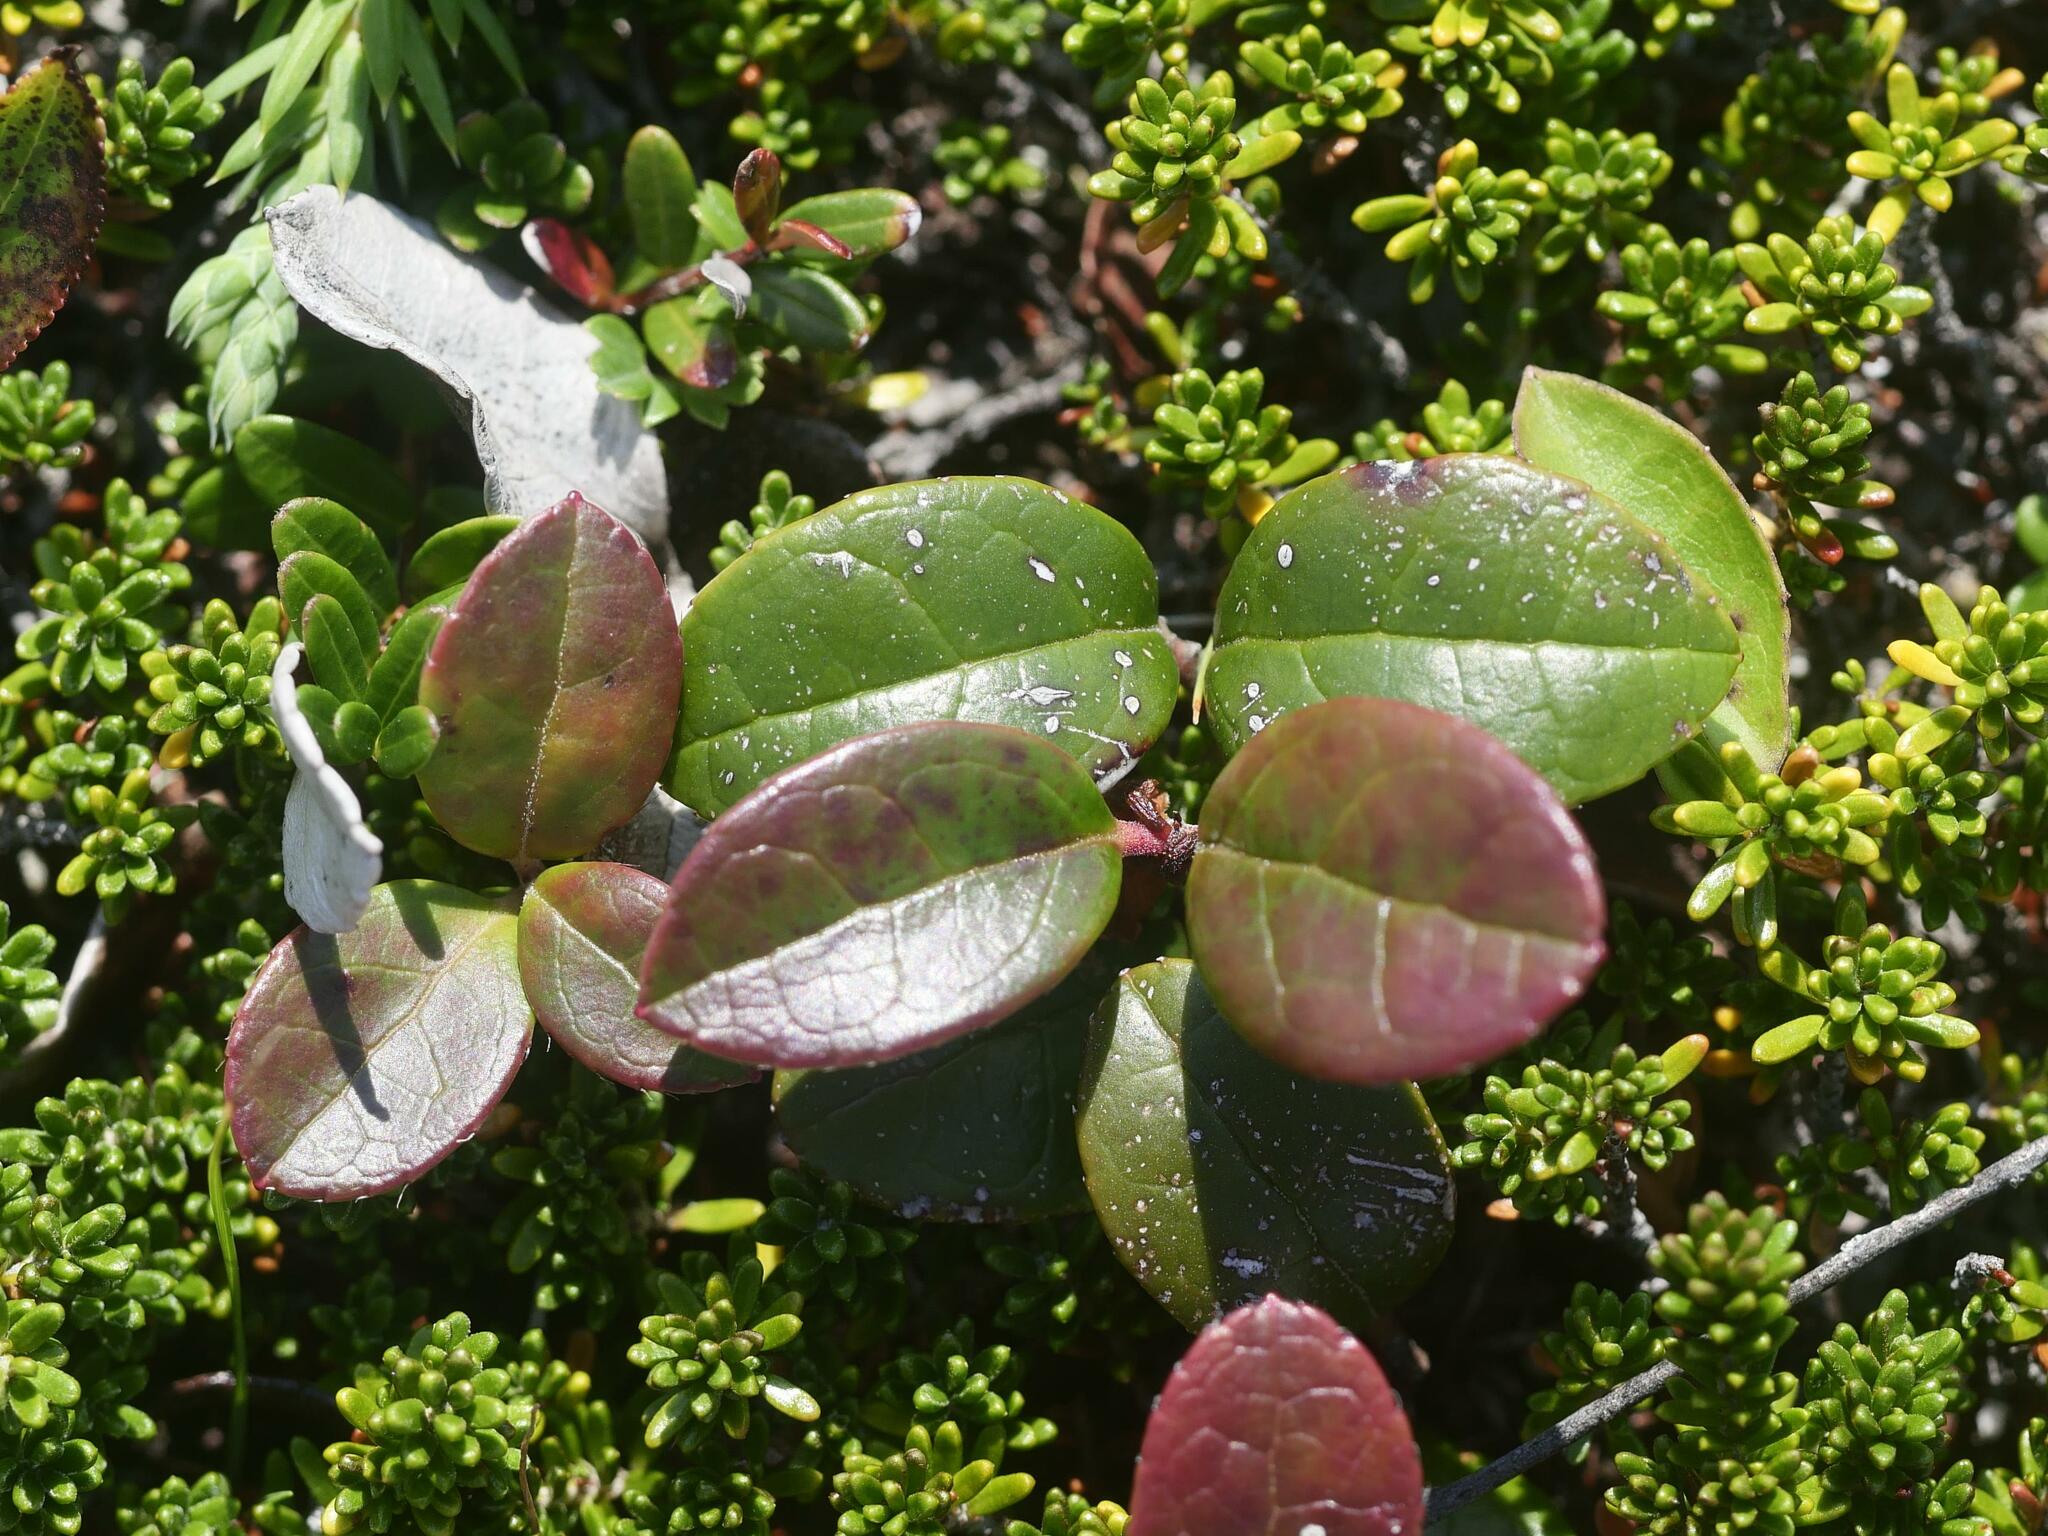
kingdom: Plantae
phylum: Tracheophyta
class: Magnoliopsida
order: Ericales
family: Ericaceae
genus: Gaultheria
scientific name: Gaultheria procumbens
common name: Checkerberry
